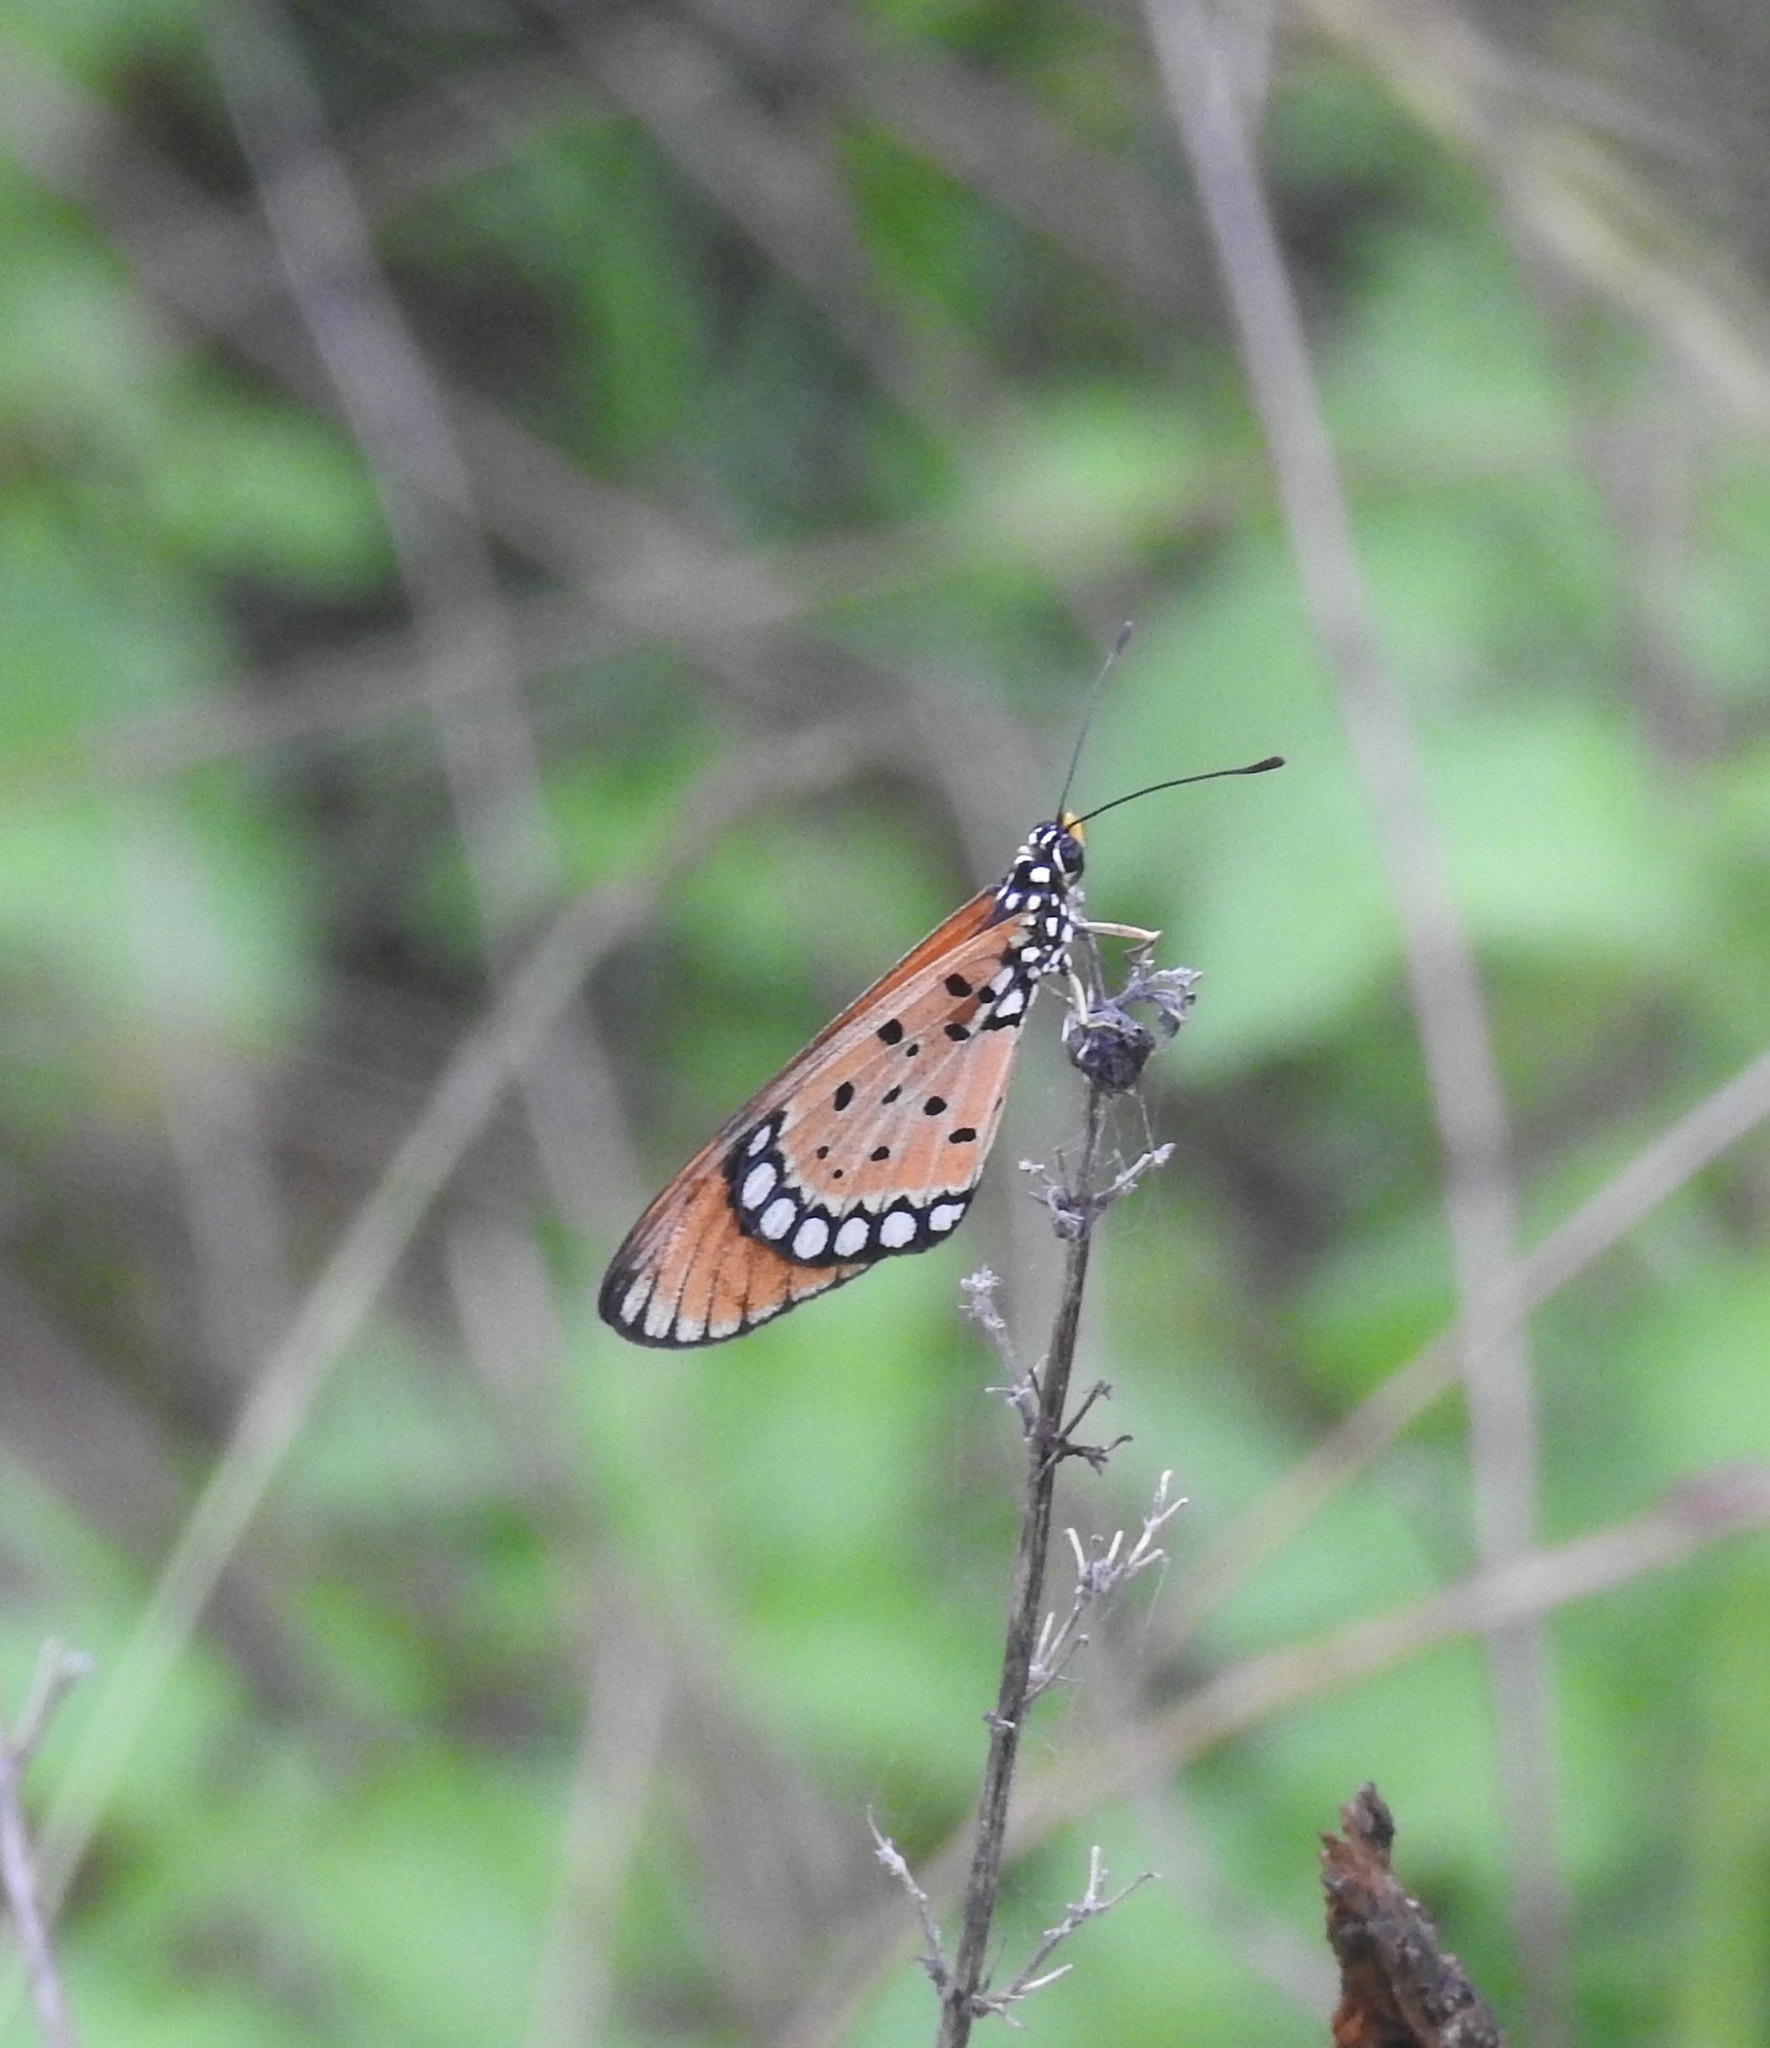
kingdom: Animalia
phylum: Arthropoda
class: Insecta
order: Lepidoptera
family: Nymphalidae
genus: Acraea
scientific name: Acraea terpsicore
